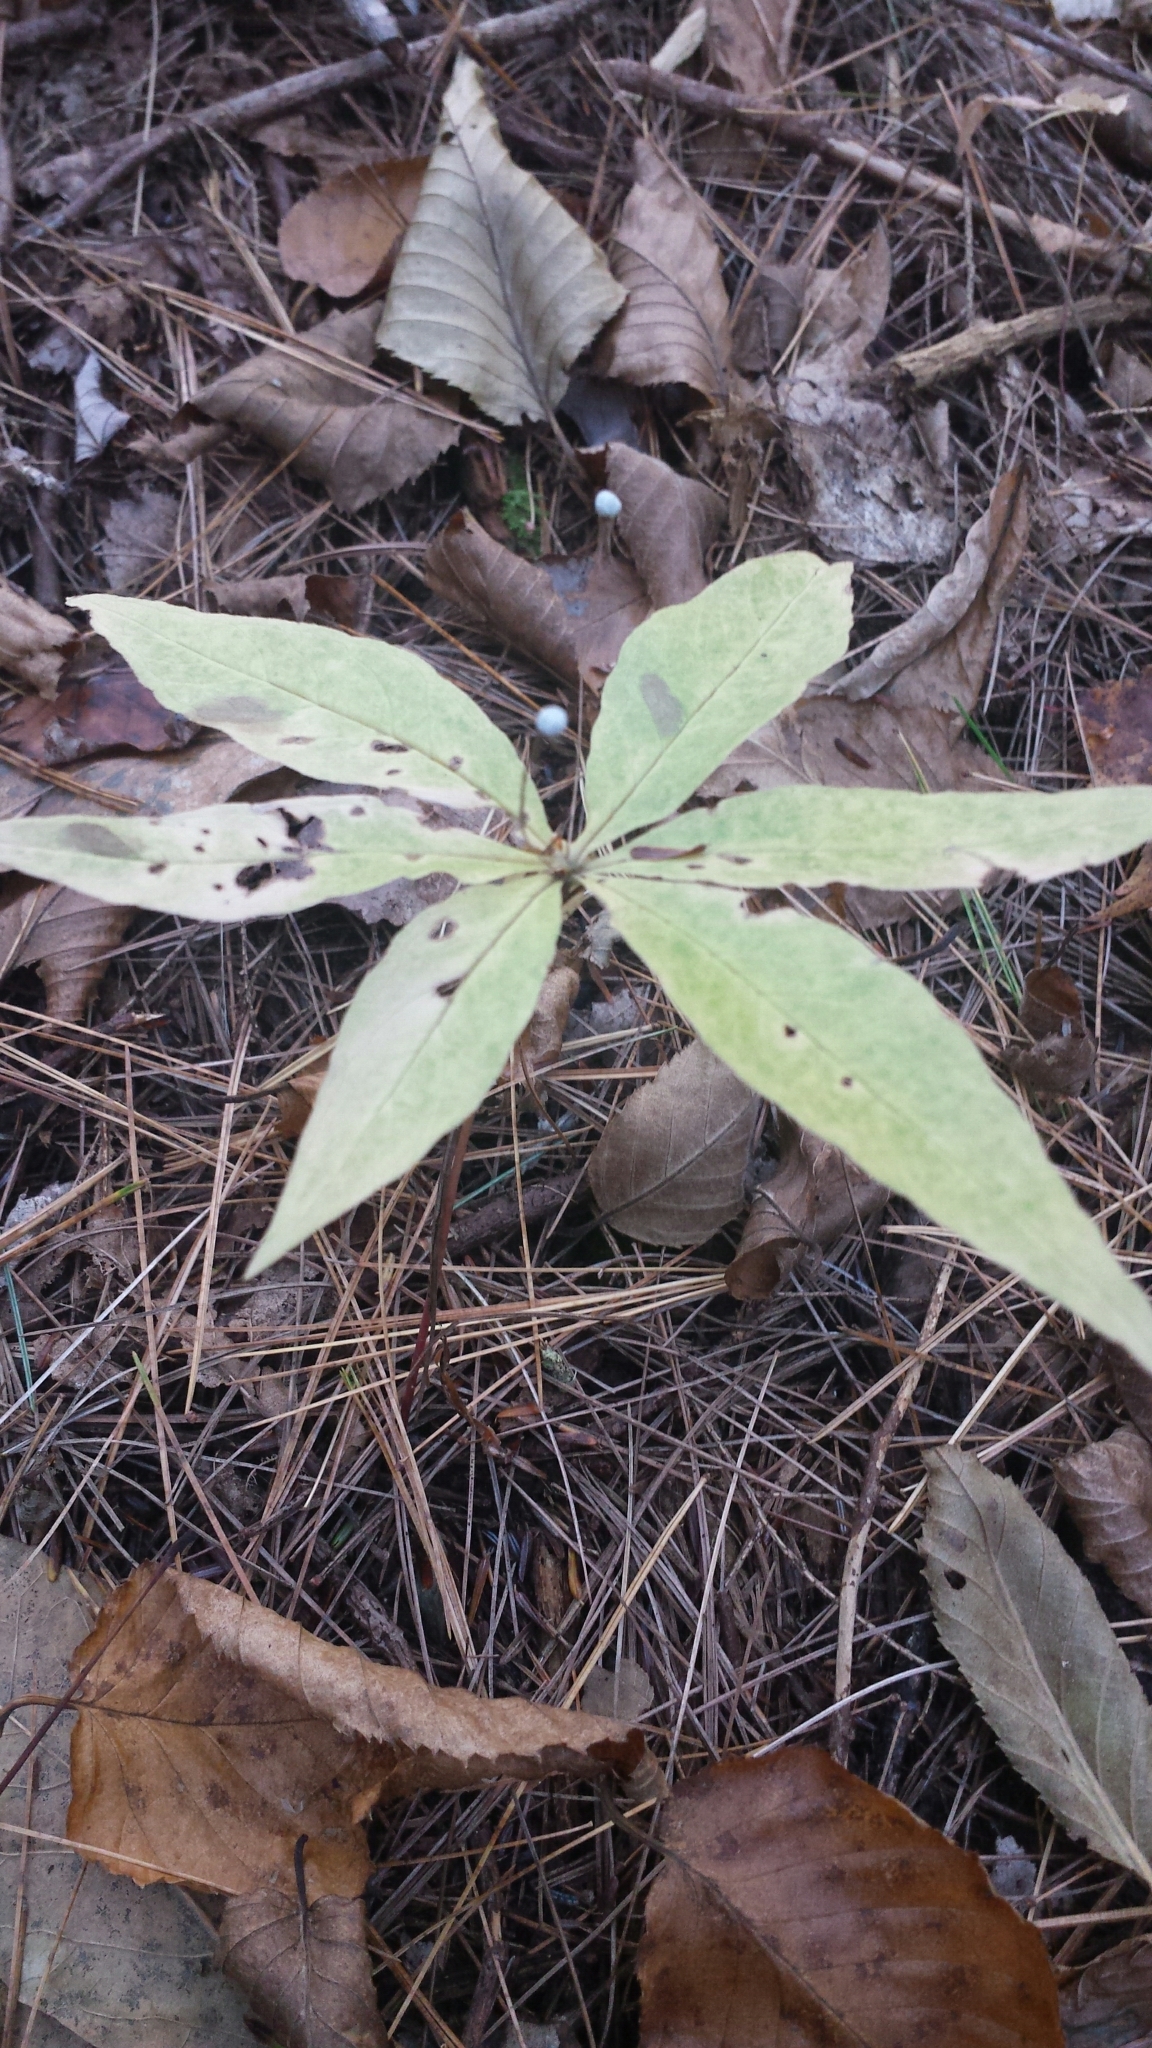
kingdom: Plantae
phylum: Tracheophyta
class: Magnoliopsida
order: Ericales
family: Primulaceae
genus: Lysimachia
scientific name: Lysimachia borealis
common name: American starflower
